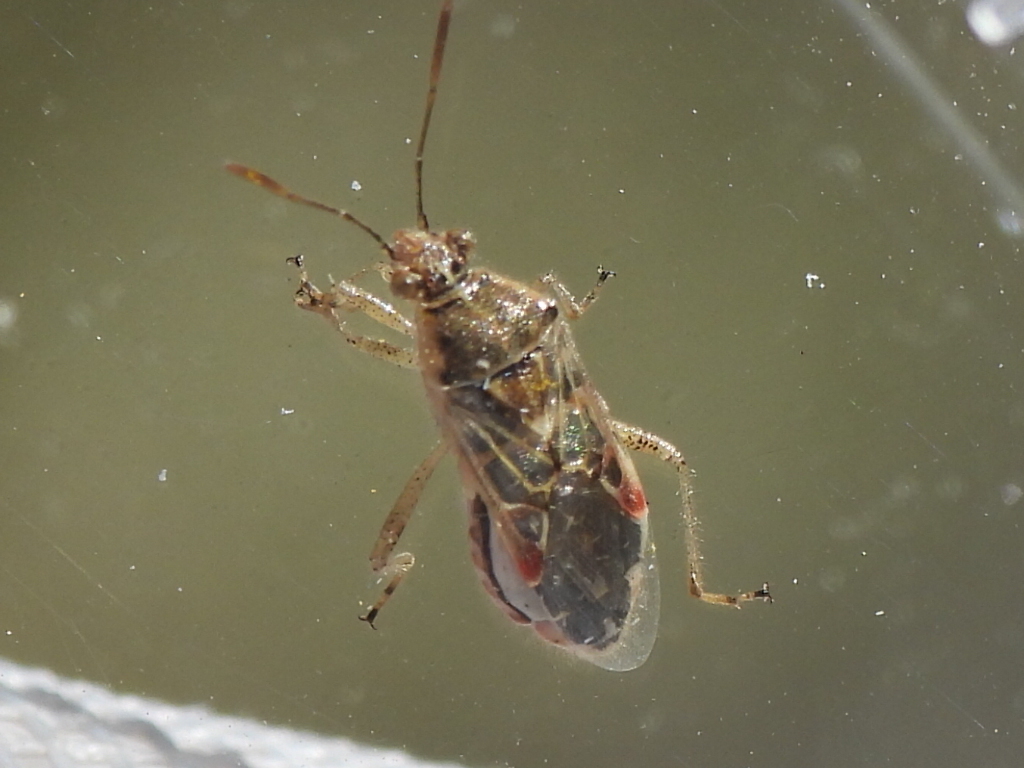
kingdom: Animalia
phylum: Arthropoda
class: Insecta
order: Hemiptera
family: Rhopalidae
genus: Liorhyssus
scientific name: Liorhyssus hyalinus
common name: Scentless plant bug
